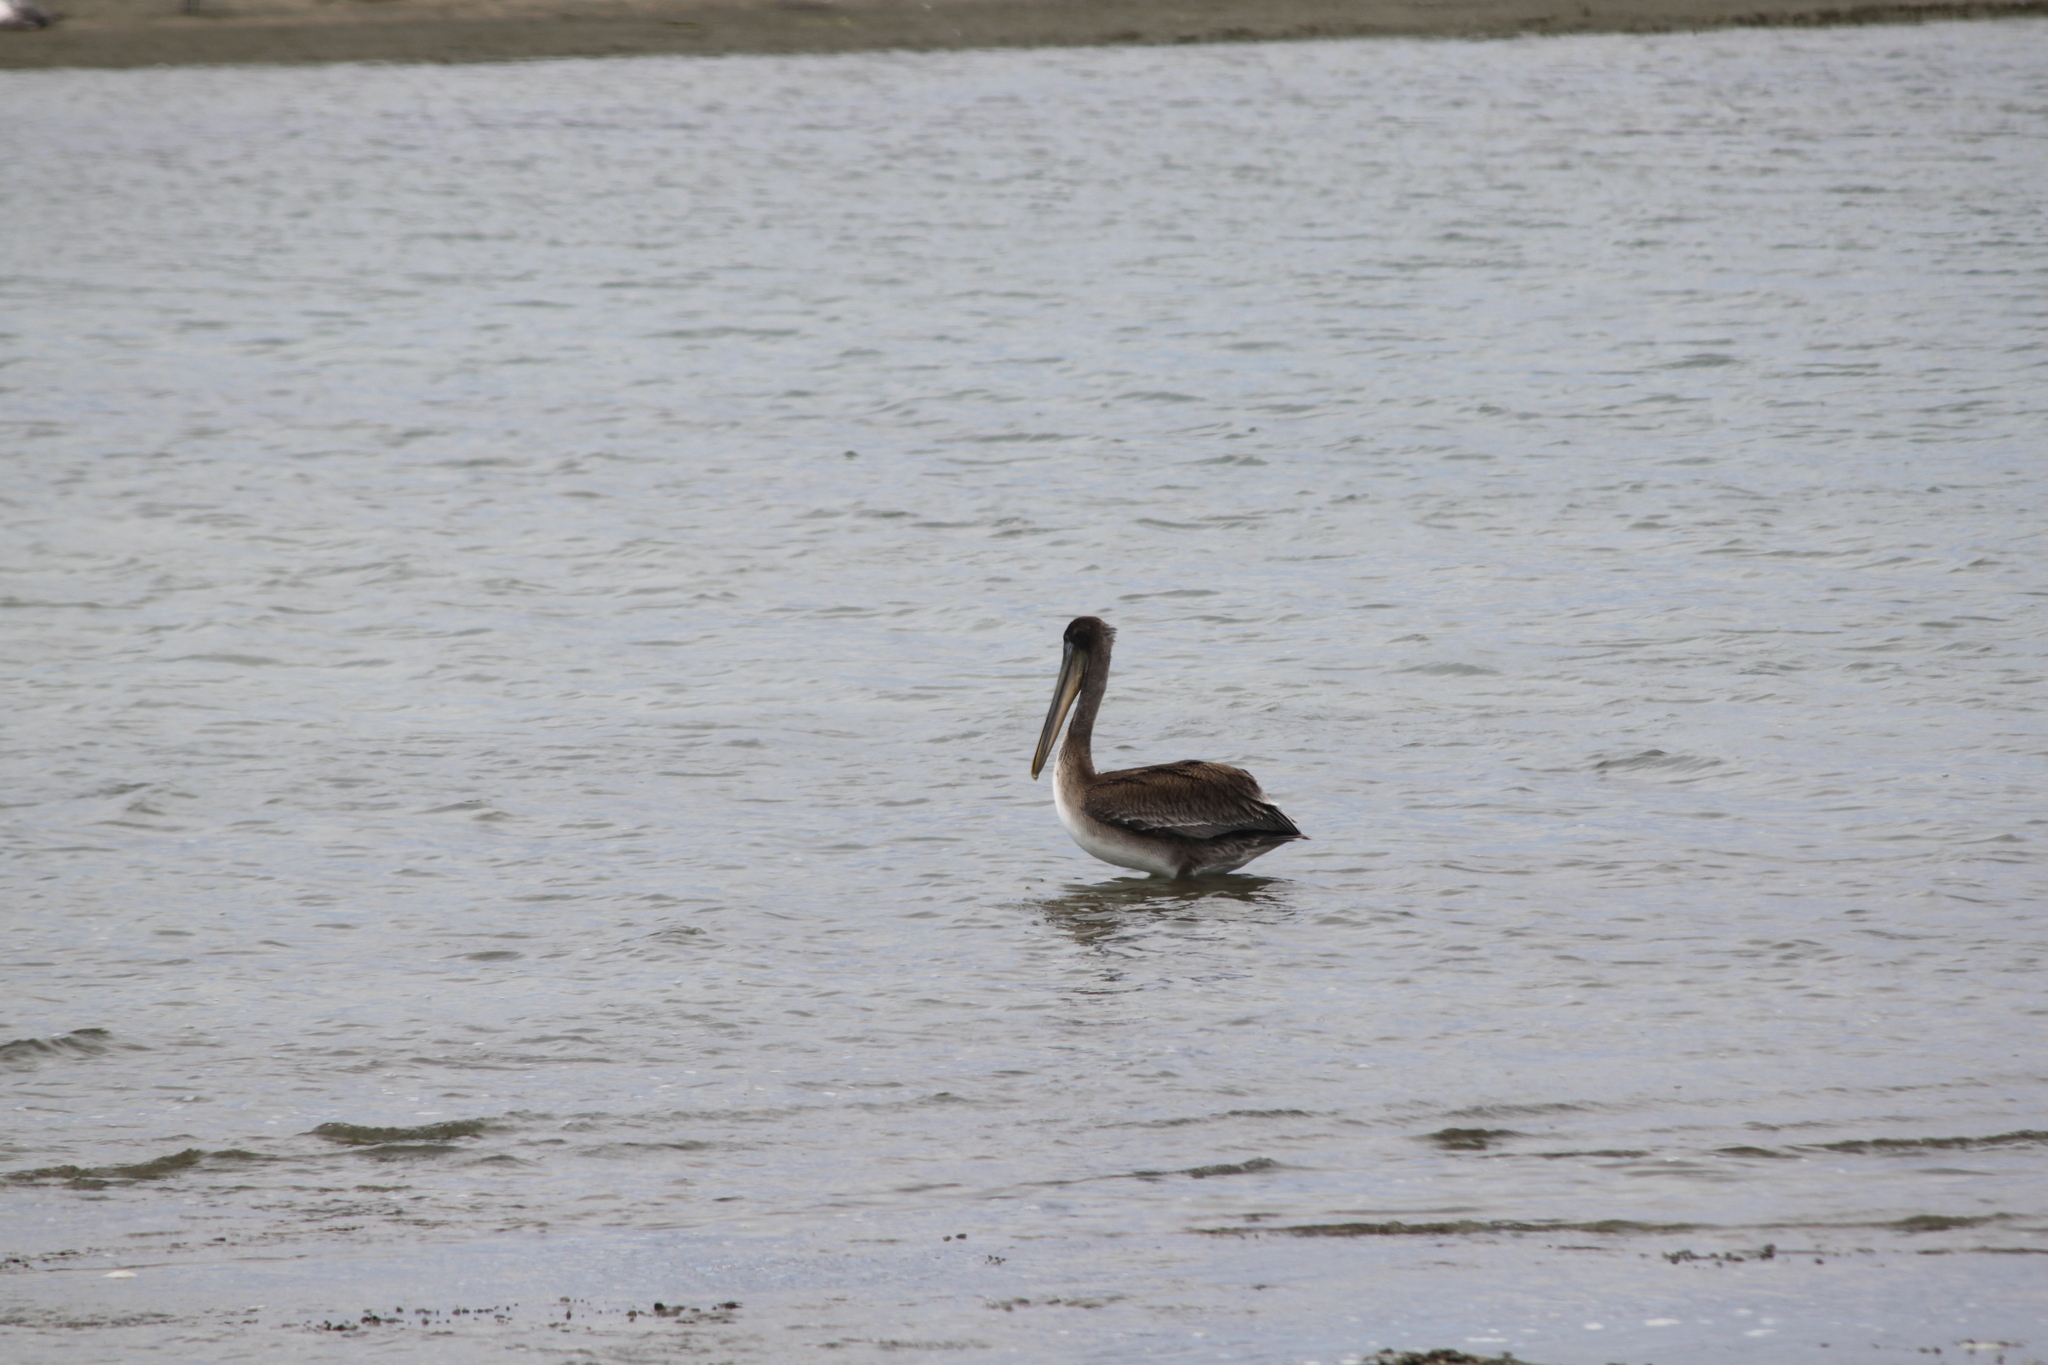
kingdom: Animalia
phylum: Chordata
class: Aves
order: Pelecaniformes
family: Pelecanidae
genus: Pelecanus
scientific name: Pelecanus occidentalis
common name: Brown pelican
